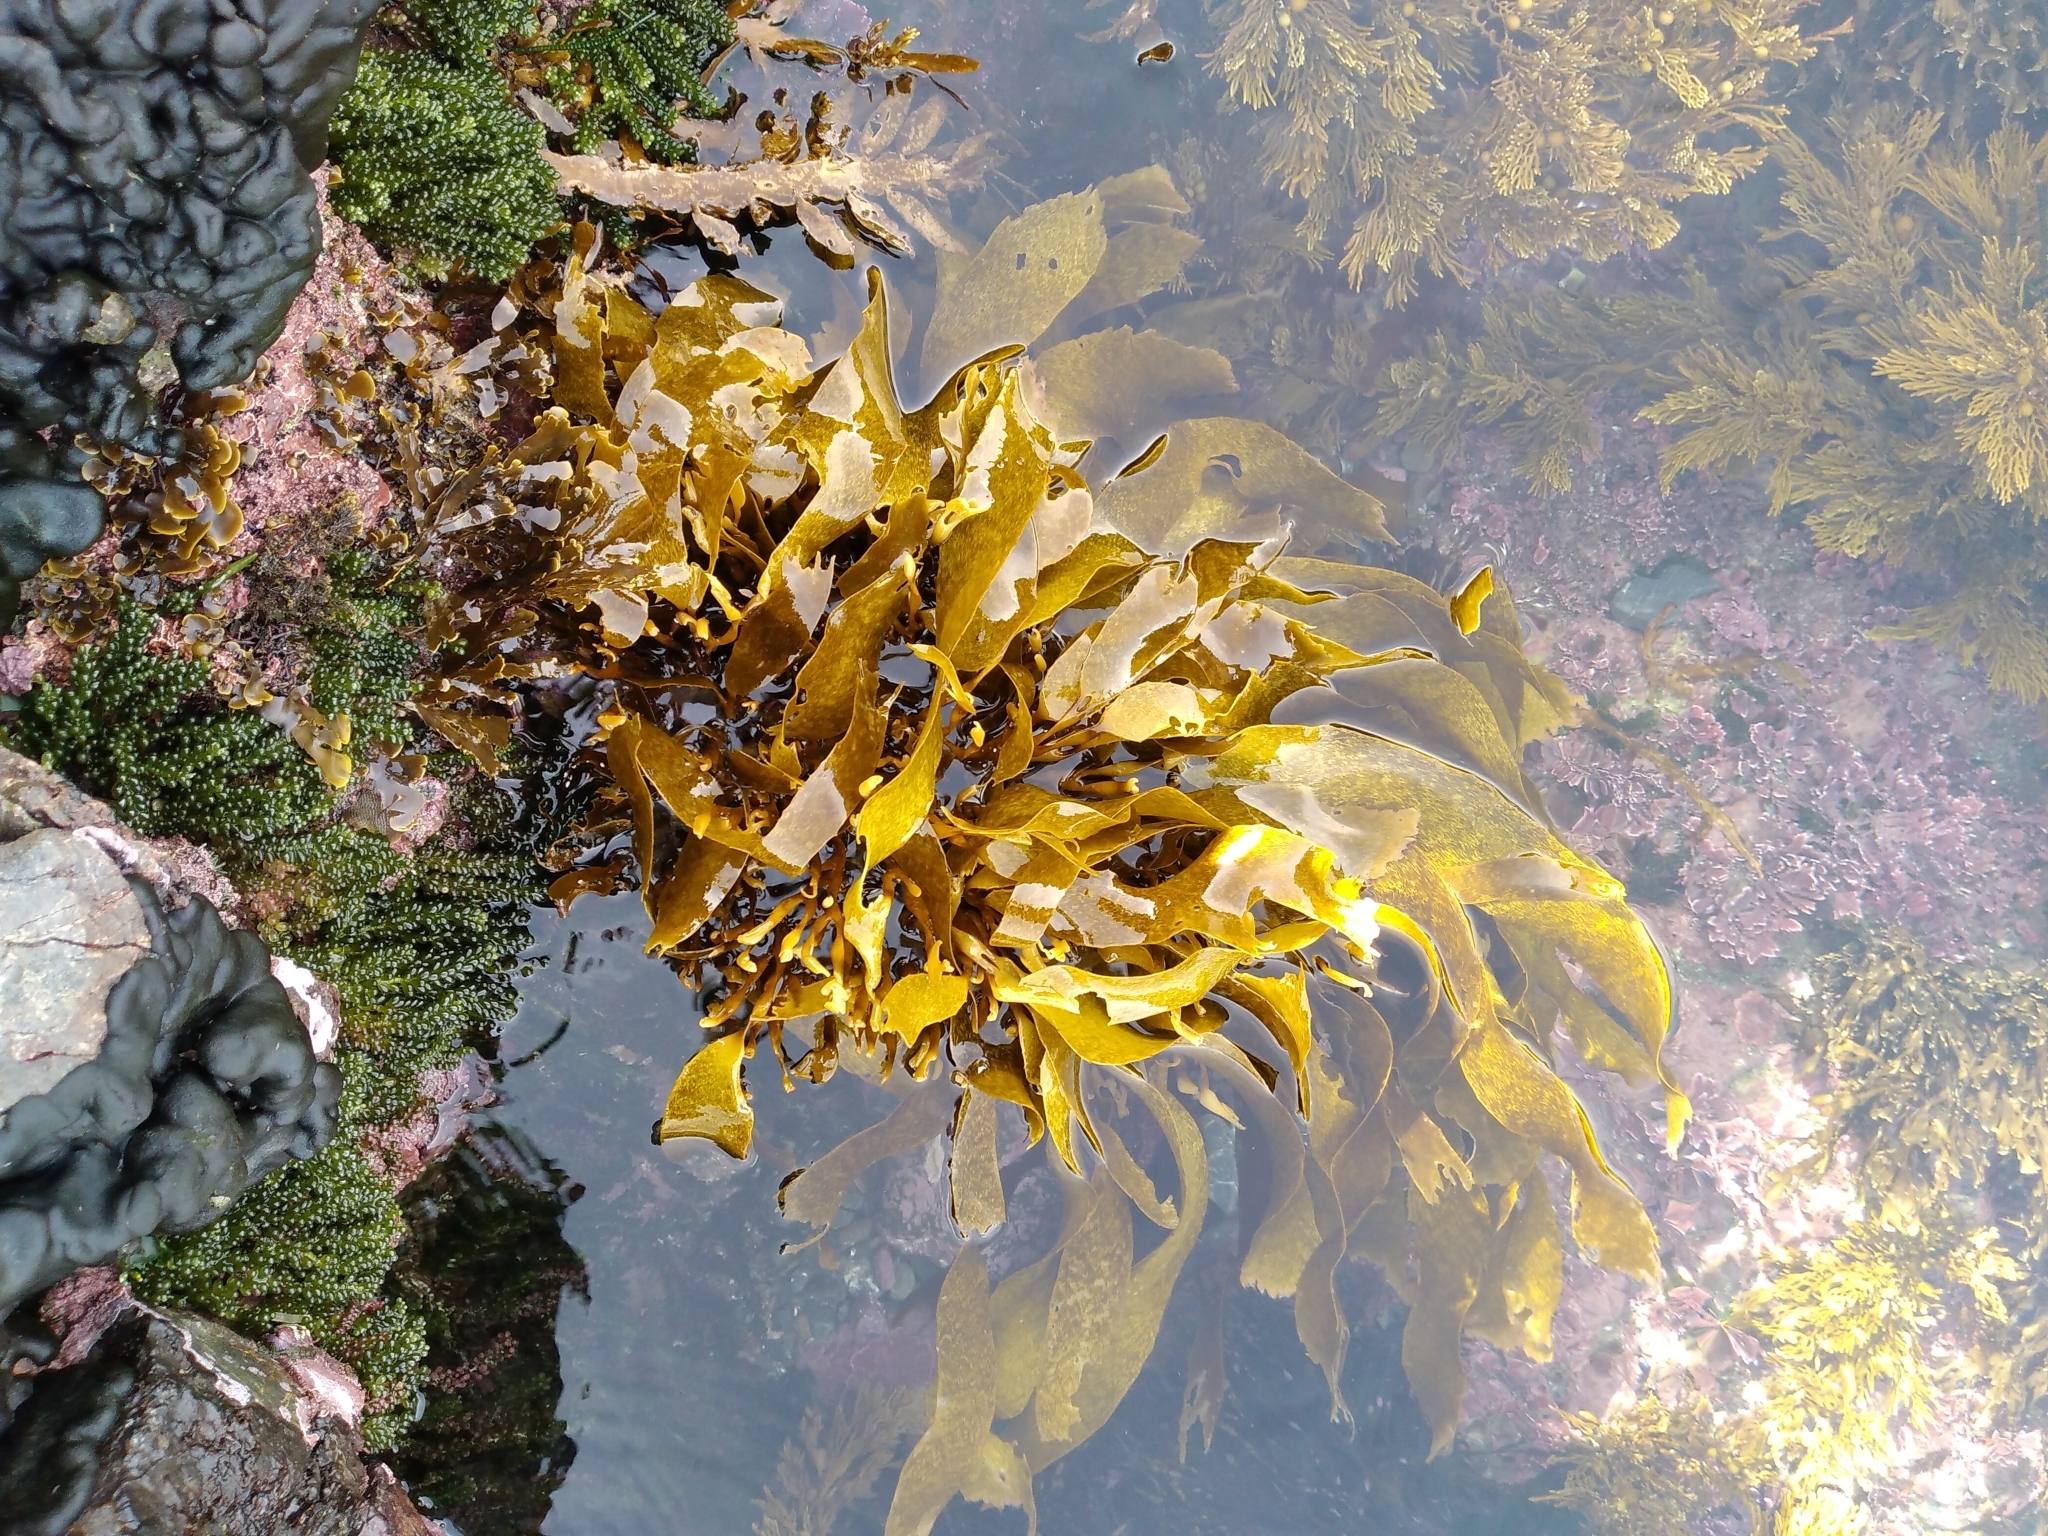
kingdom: Chromista
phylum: Ochrophyta
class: Phaeophyceae
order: Laminariales
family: Lessoniaceae
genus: Lessonia
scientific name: Lessonia variegata
